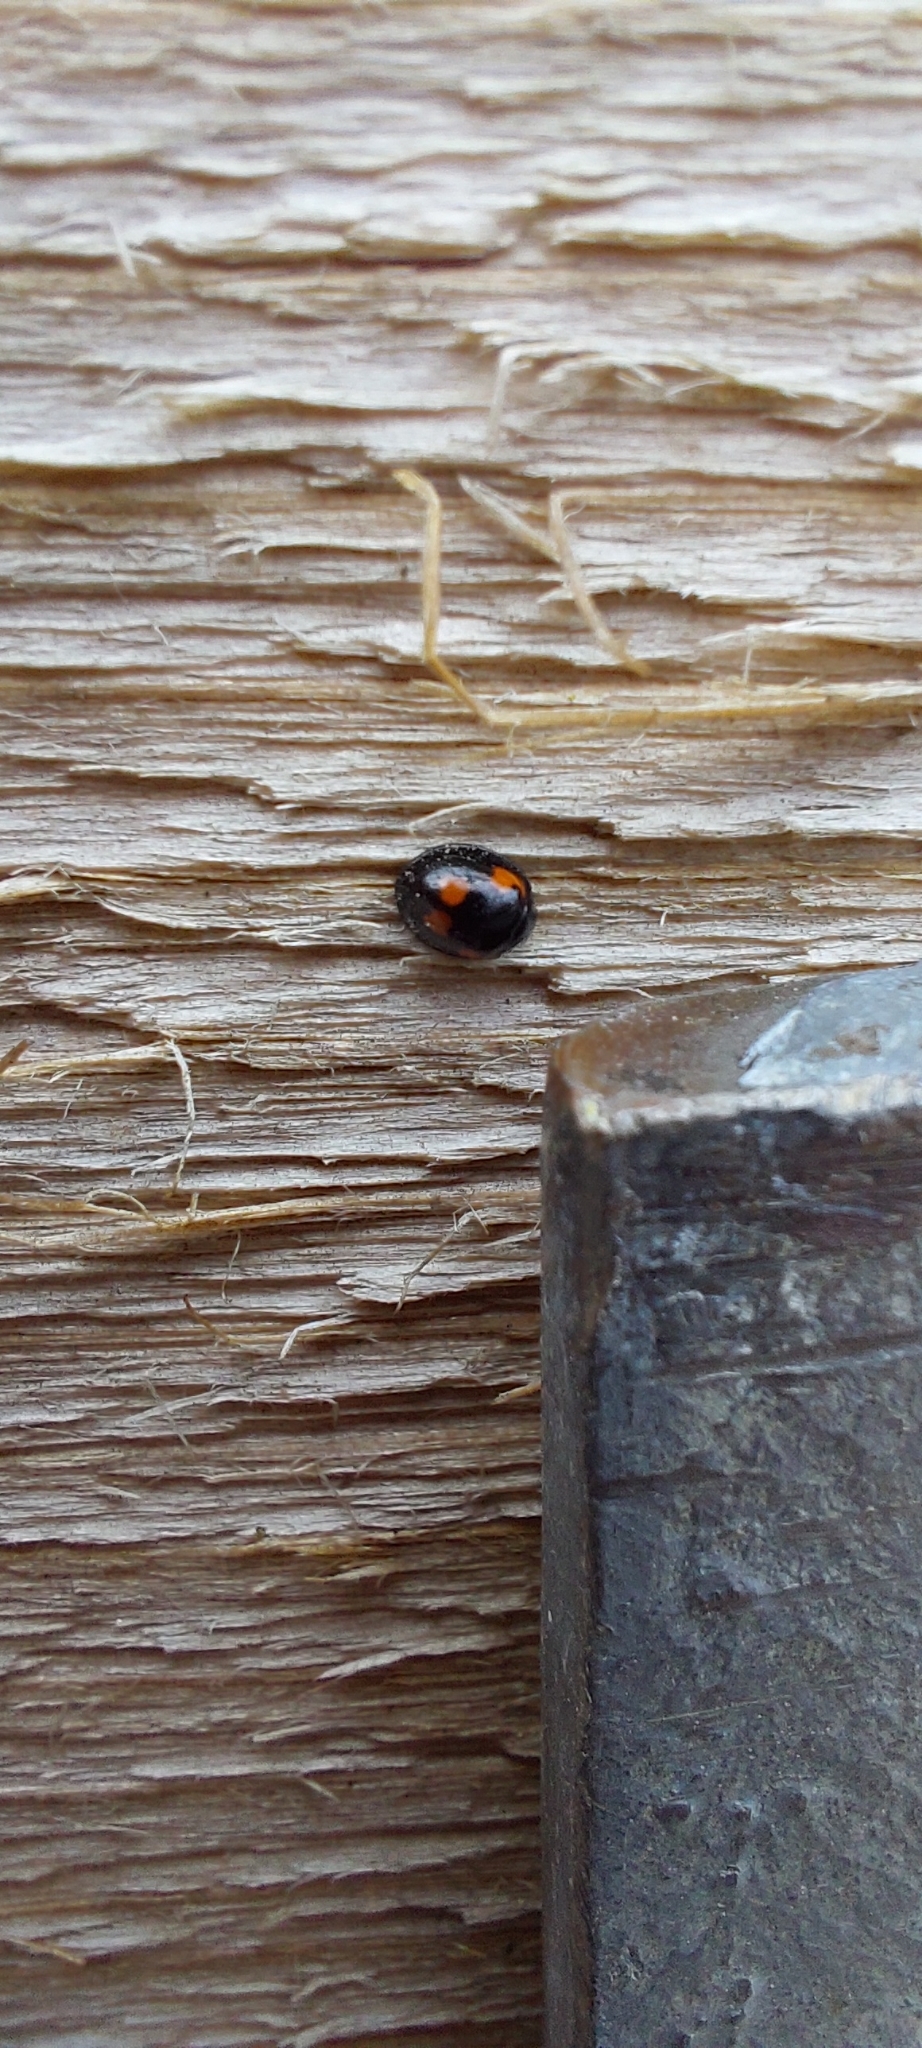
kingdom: Animalia
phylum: Arthropoda
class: Insecta
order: Coleoptera
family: Coccinellidae
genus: Brumus
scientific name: Brumus quadripustulatus
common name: Ladybird beetle
